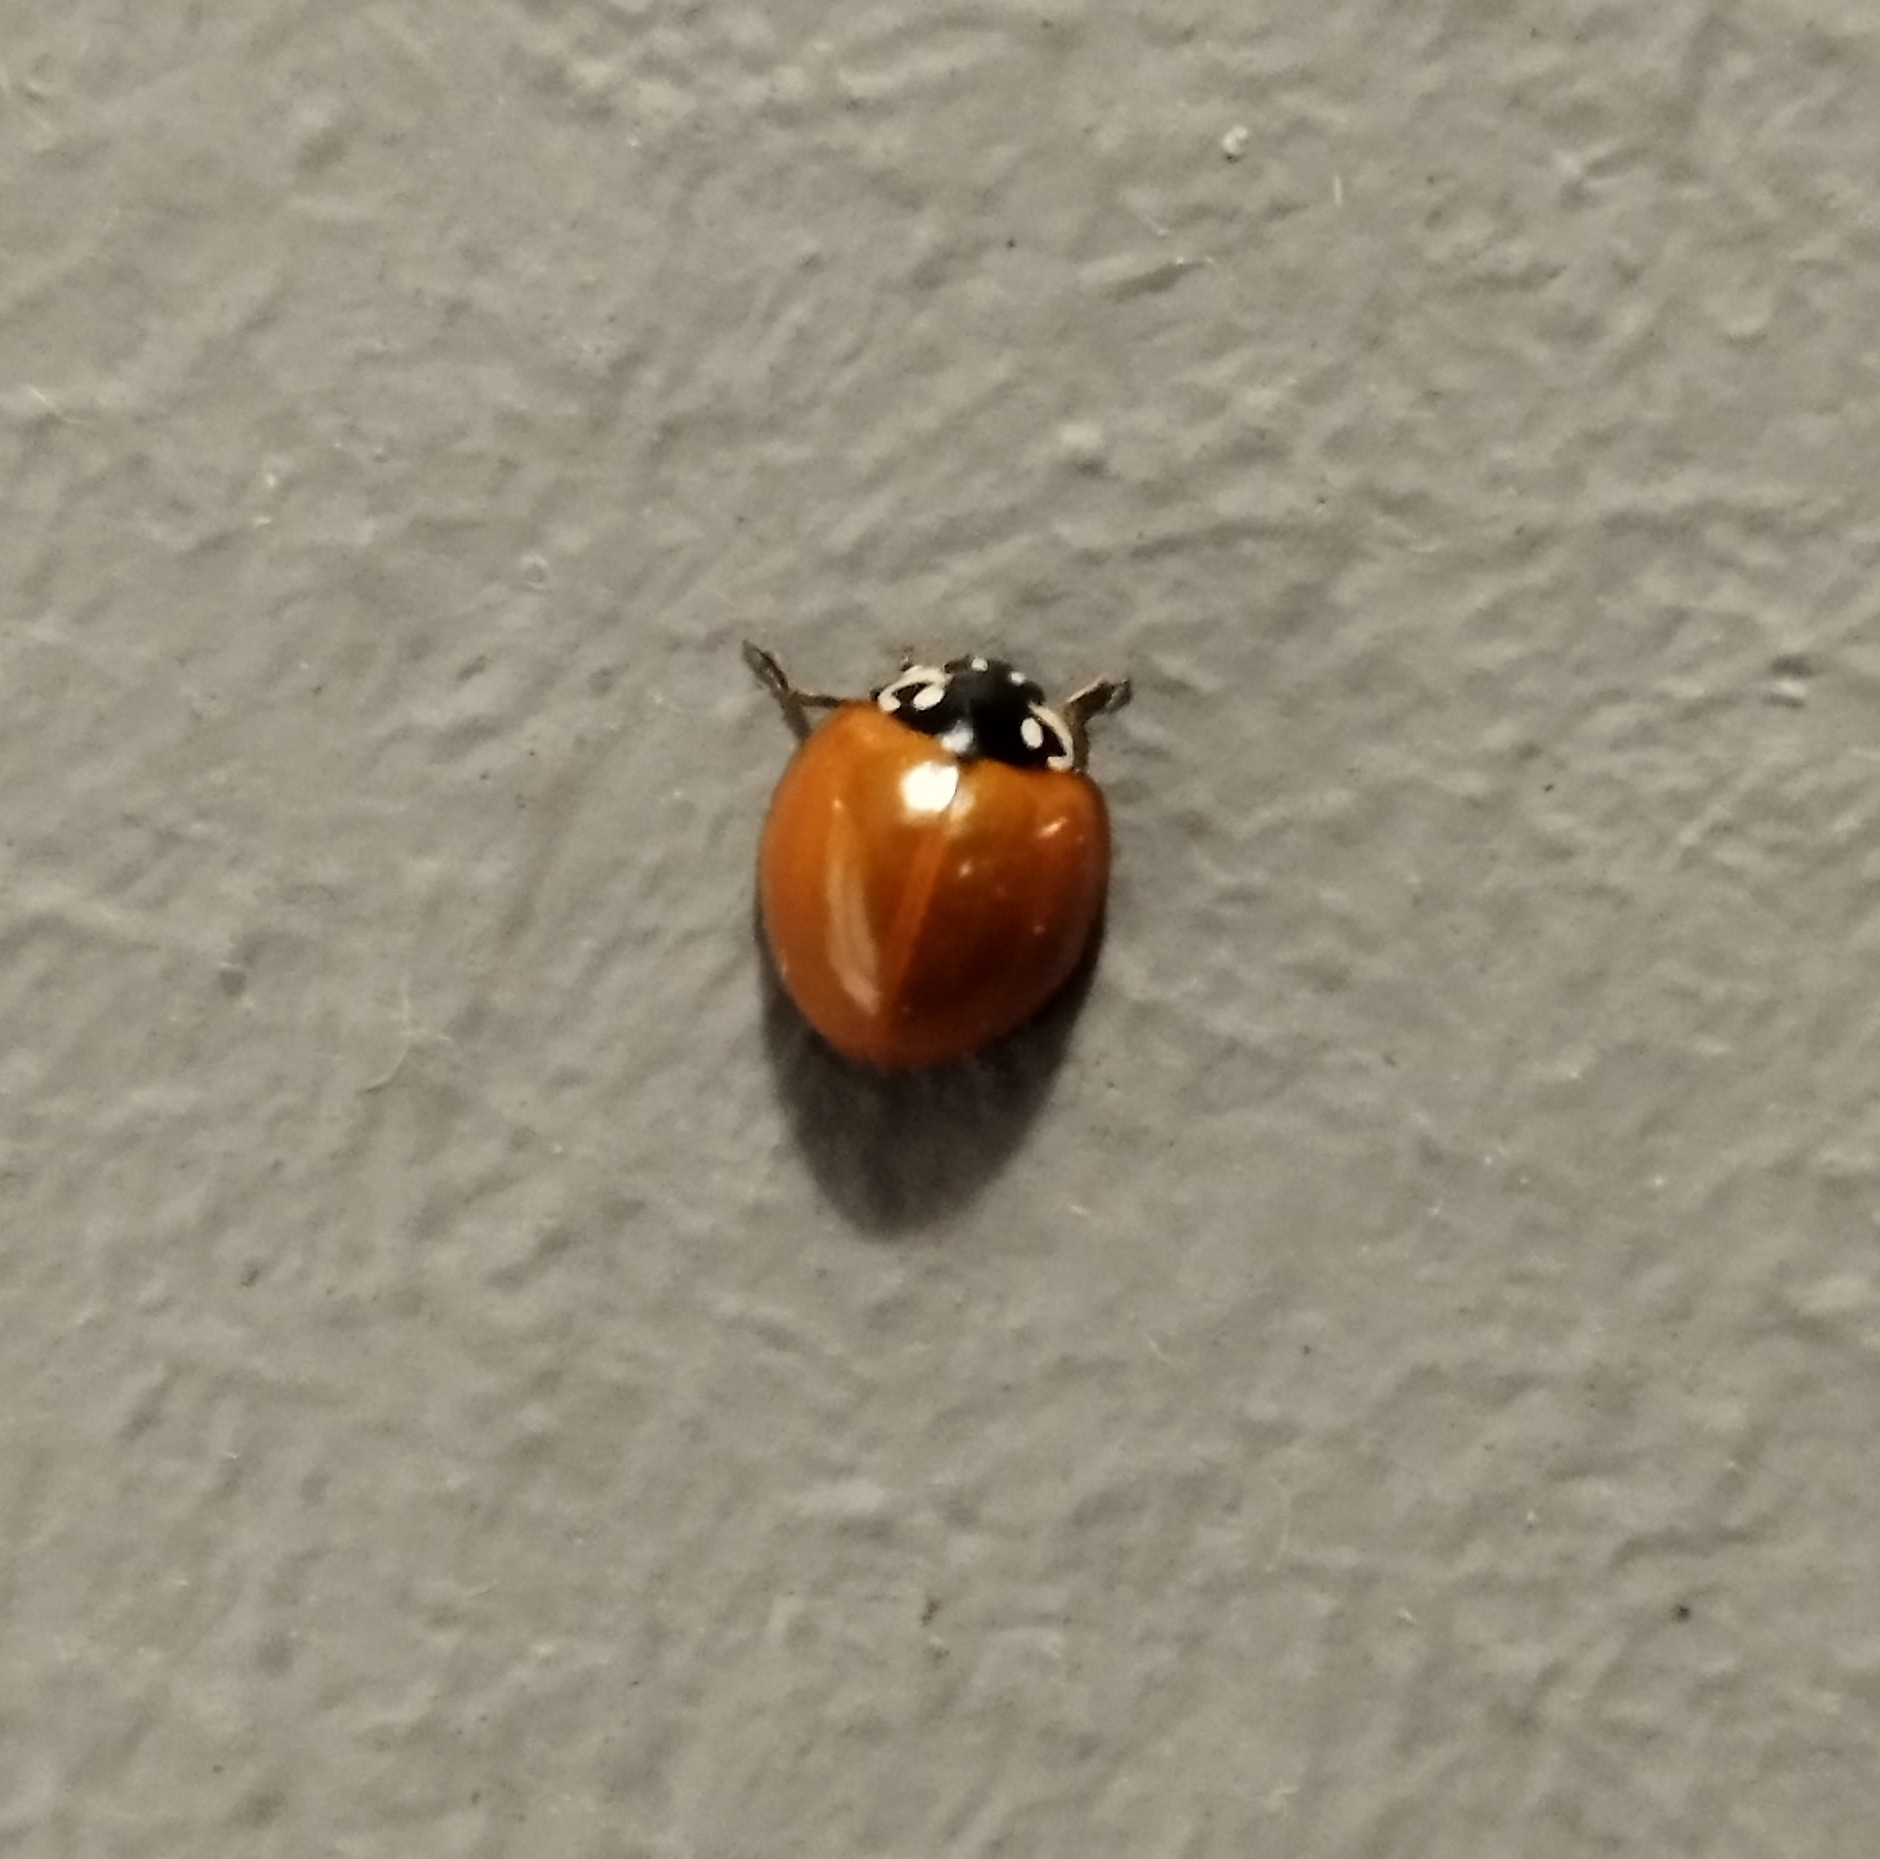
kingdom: Animalia
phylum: Arthropoda
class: Insecta
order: Coleoptera
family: Coccinellidae
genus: Cycloneda
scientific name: Cycloneda sanguinea
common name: Ladybird beetle
